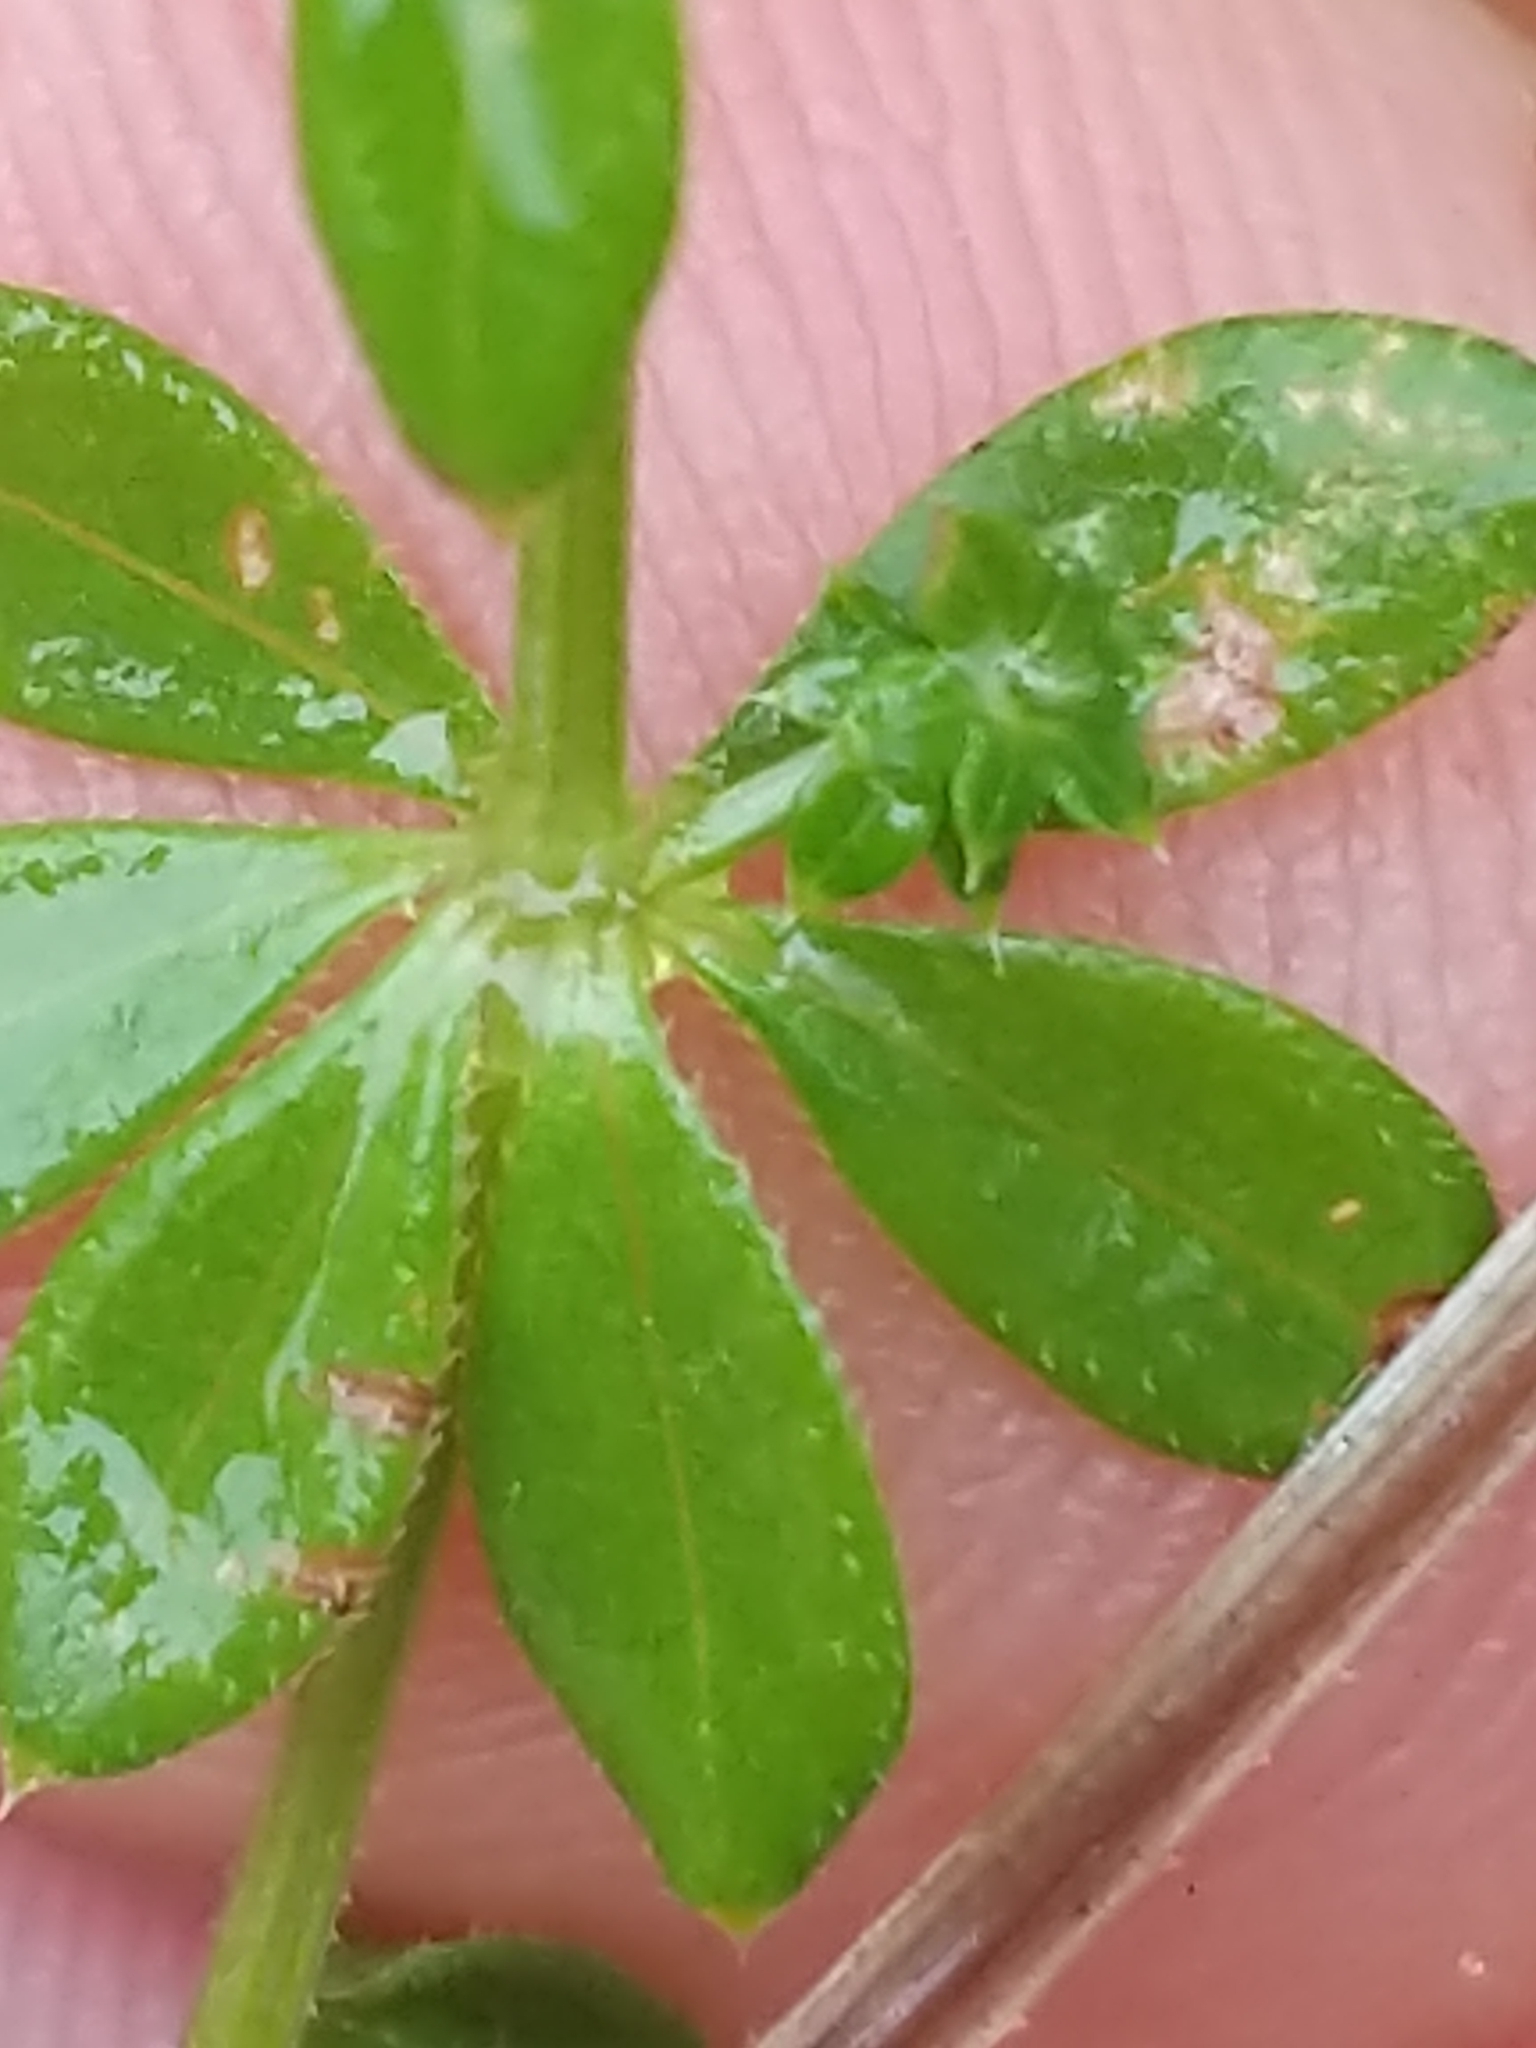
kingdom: Plantae
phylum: Tracheophyta
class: Magnoliopsida
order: Gentianales
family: Rubiaceae
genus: Galium
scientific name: Galium asprellum
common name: Rough bedstraw
